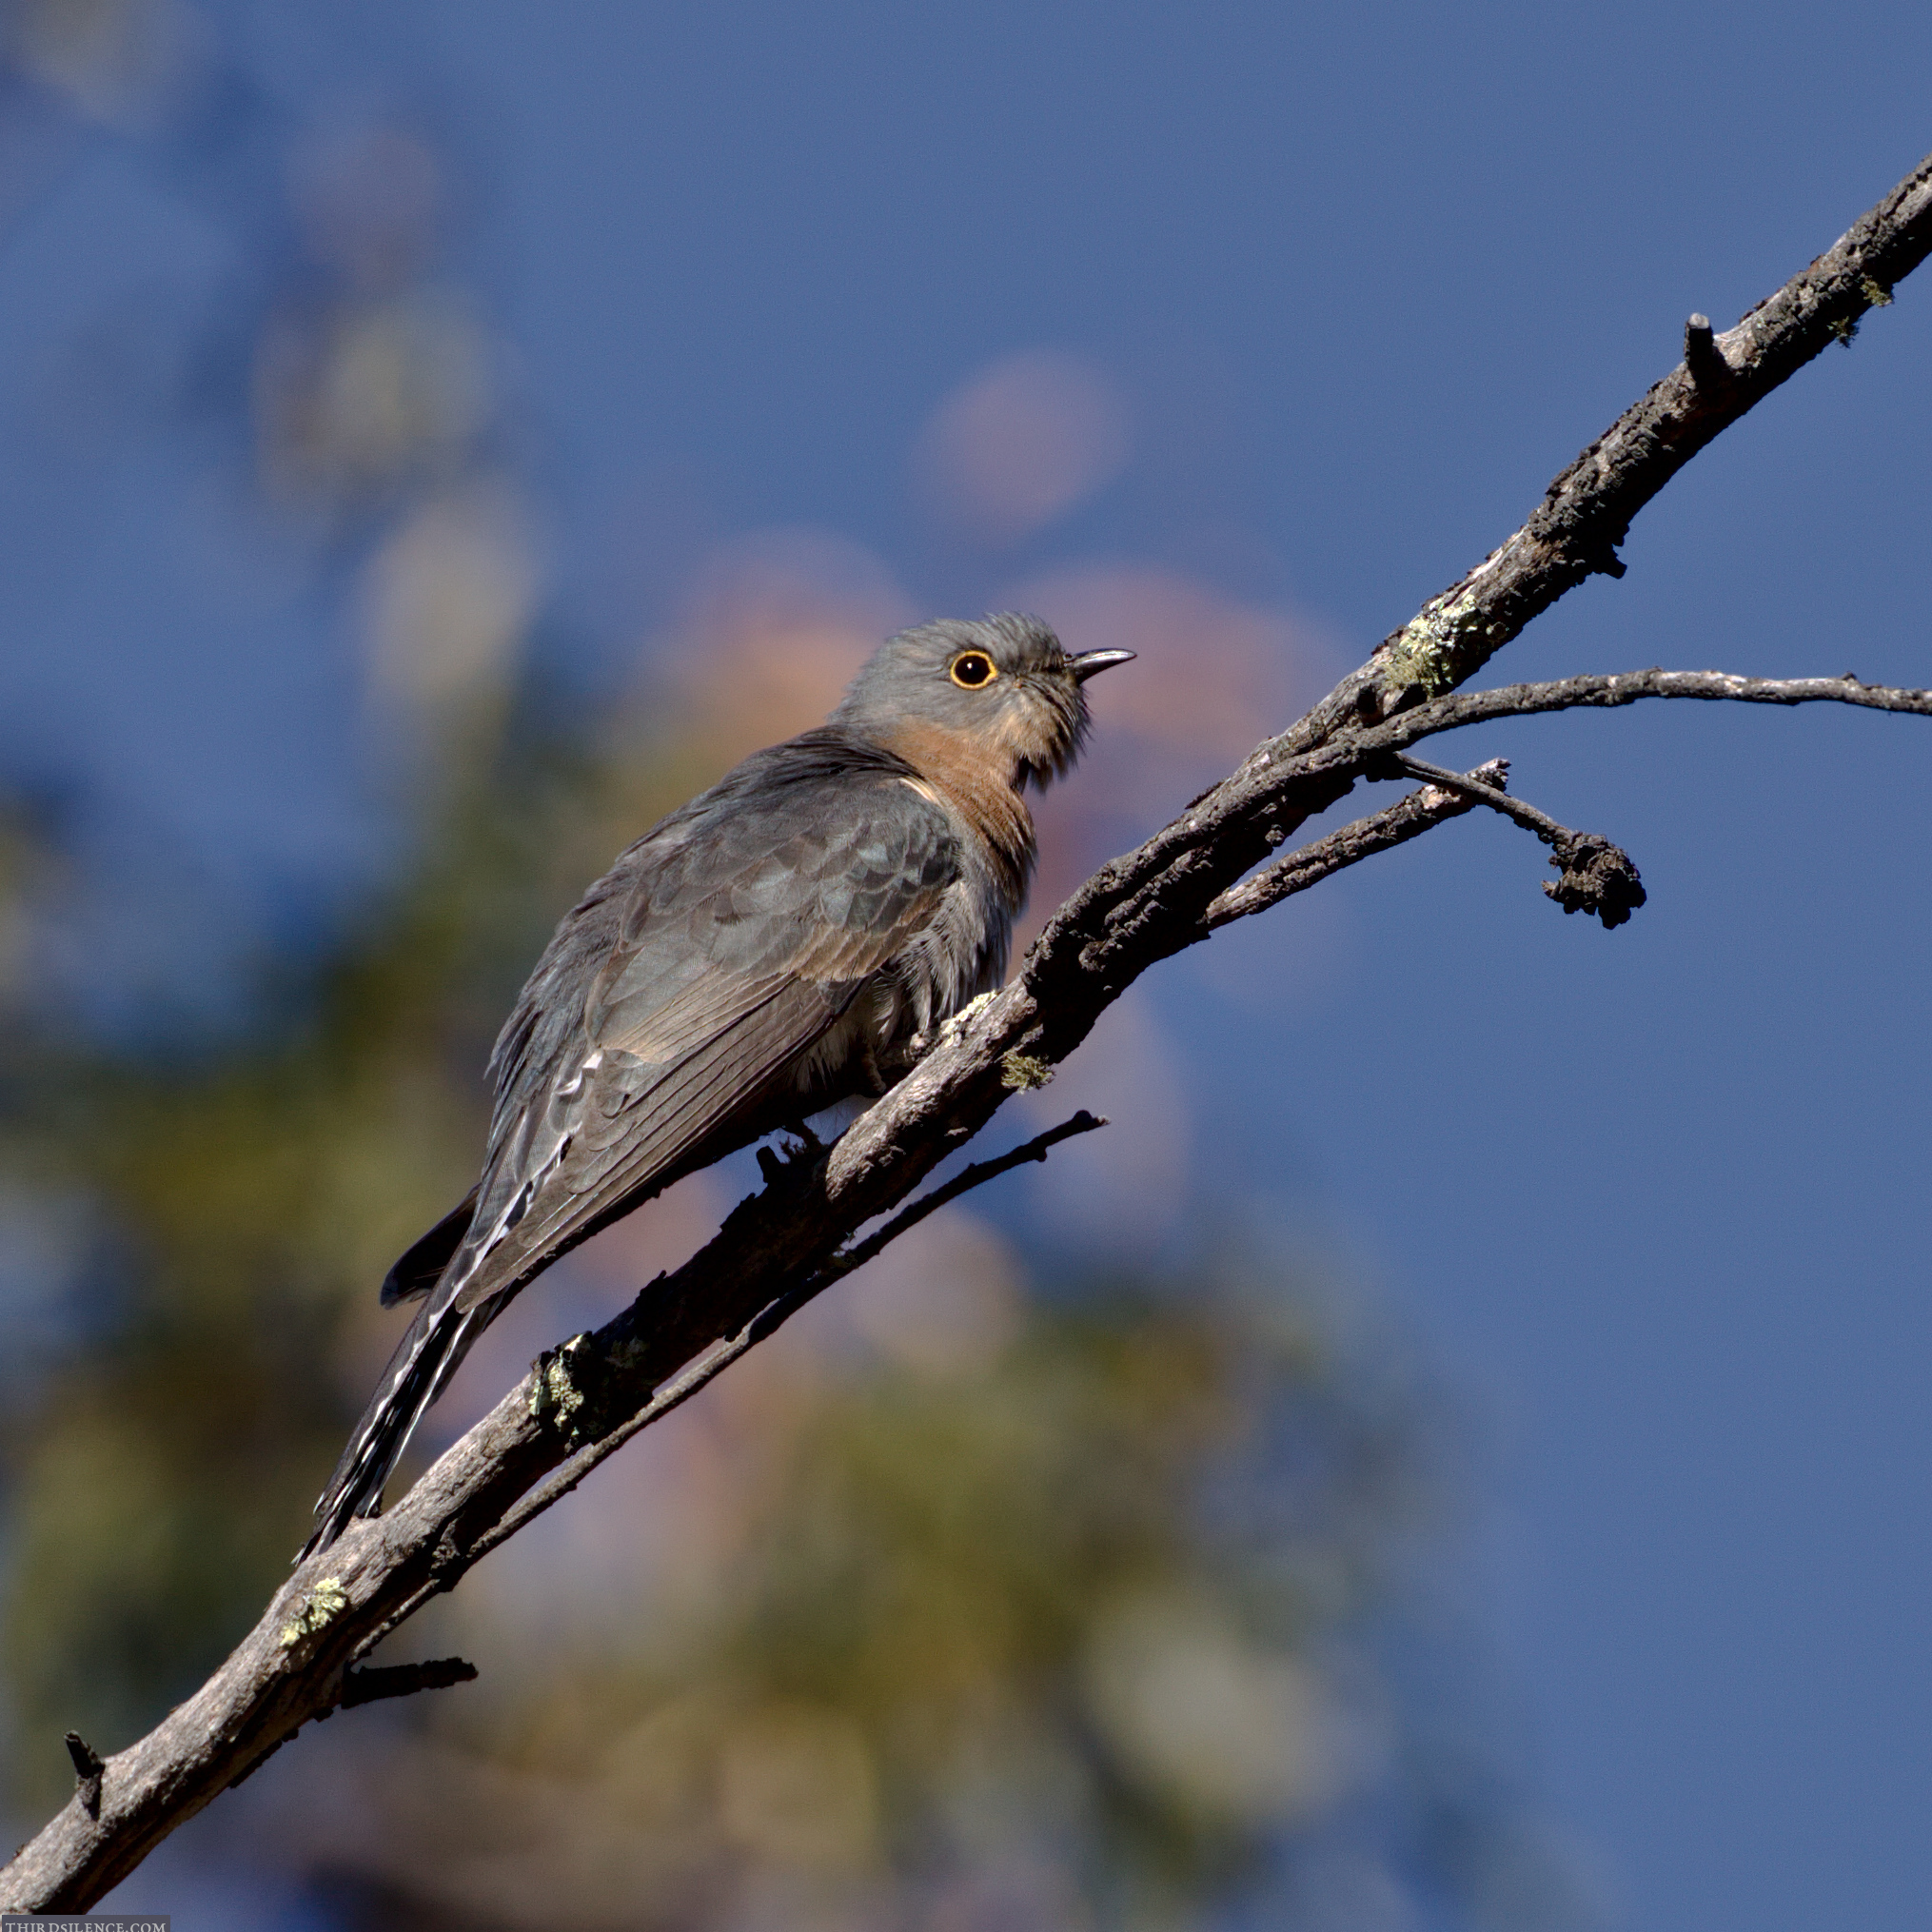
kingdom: Animalia
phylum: Chordata
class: Aves
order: Cuculiformes
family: Cuculidae
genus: Cacomantis
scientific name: Cacomantis flabelliformis
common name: Fan-tailed cuckoo
